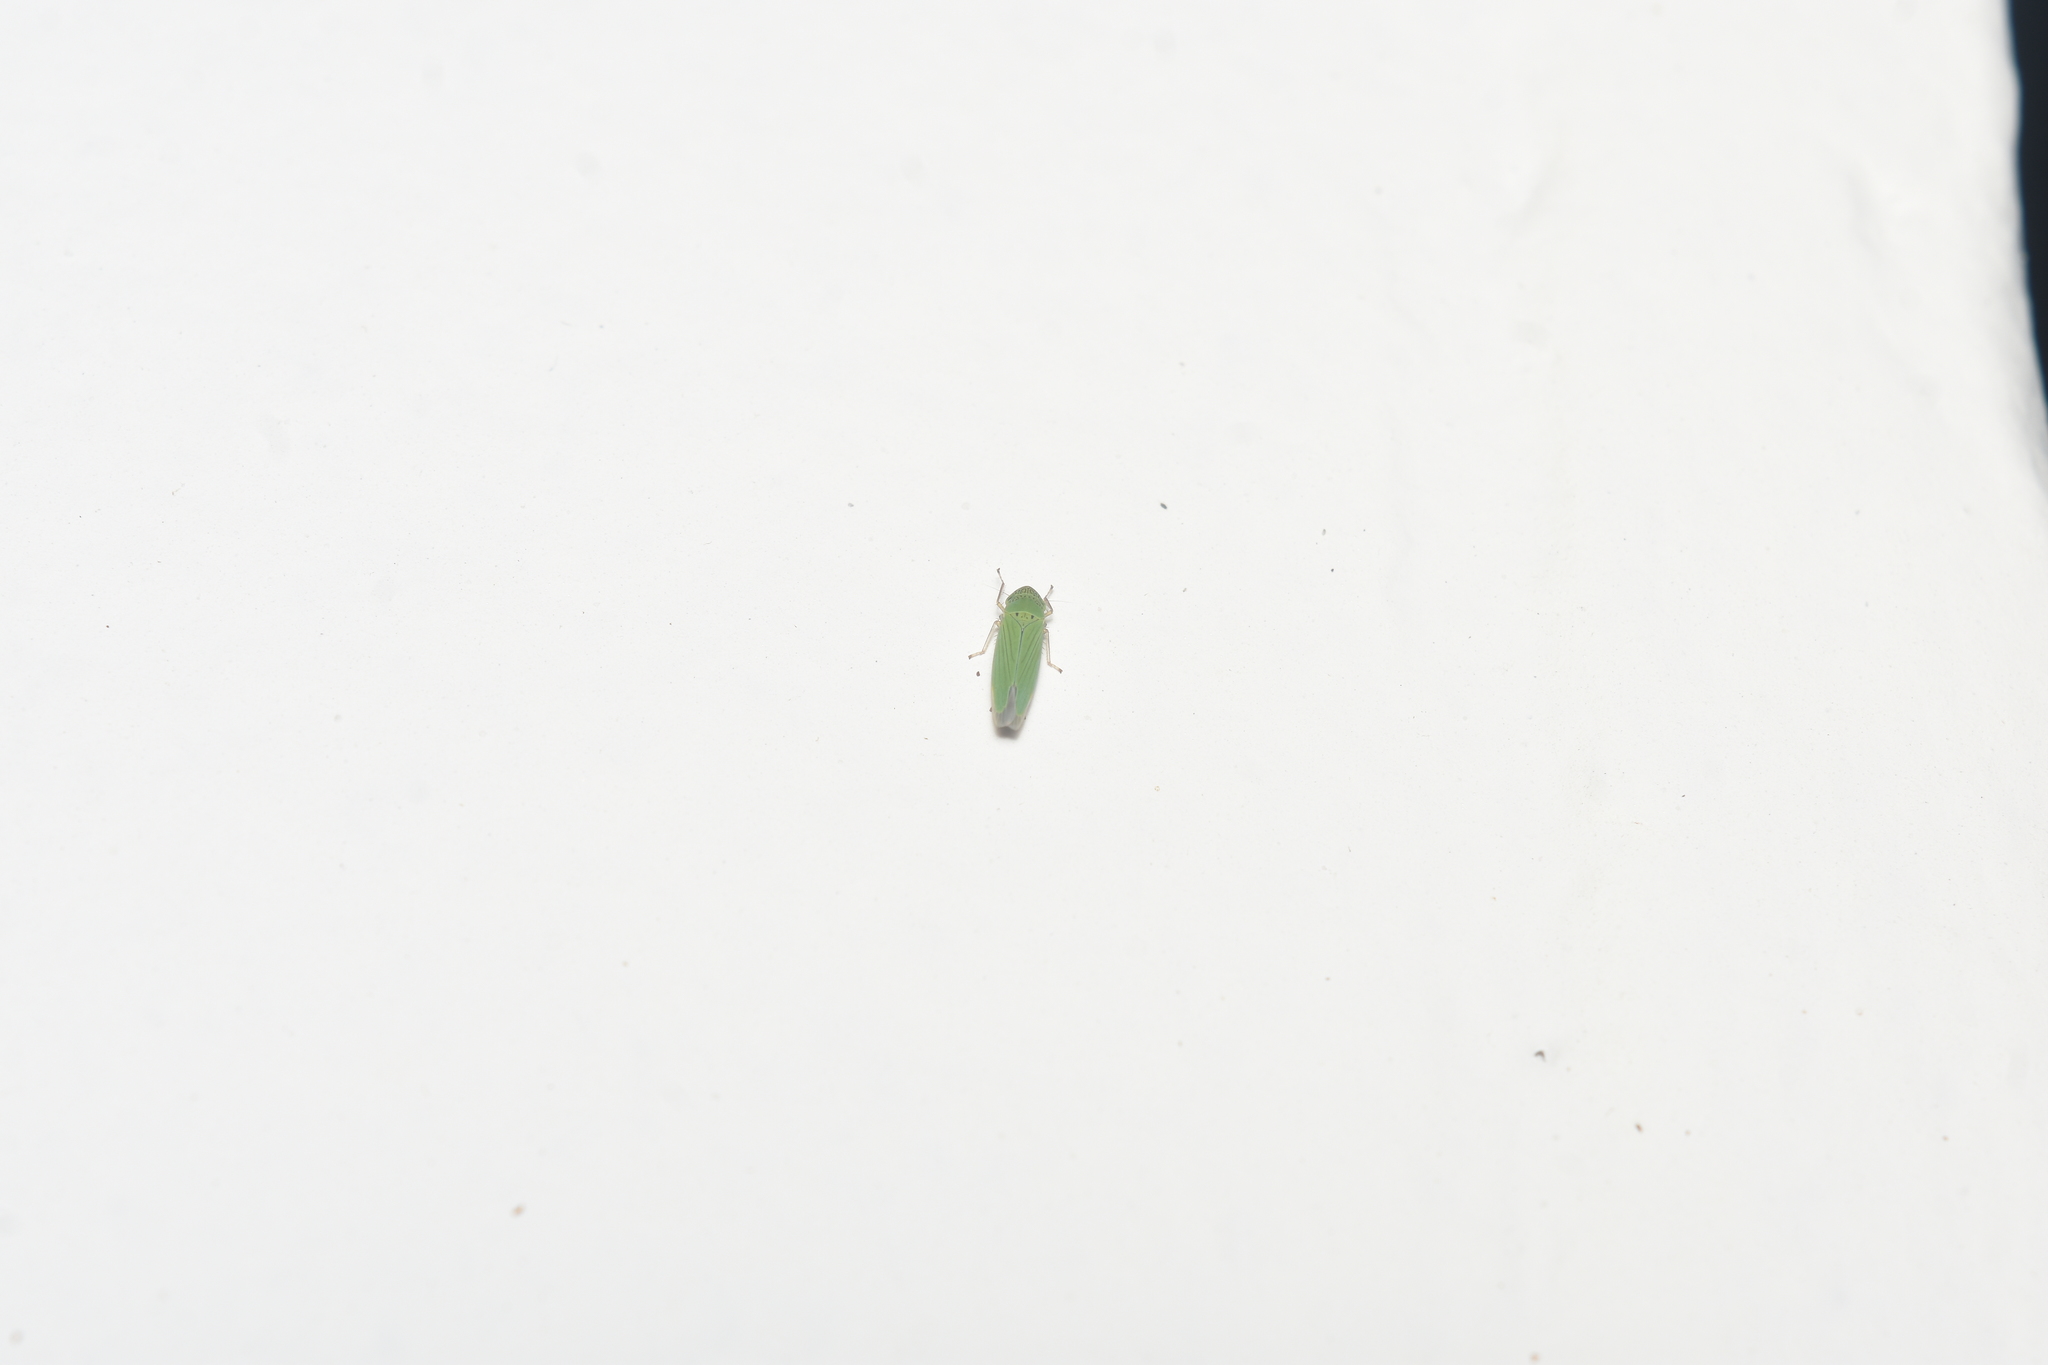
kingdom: Animalia
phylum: Arthropoda
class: Insecta
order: Hemiptera
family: Cicadellidae
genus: Hortensia
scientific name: Hortensia similis
